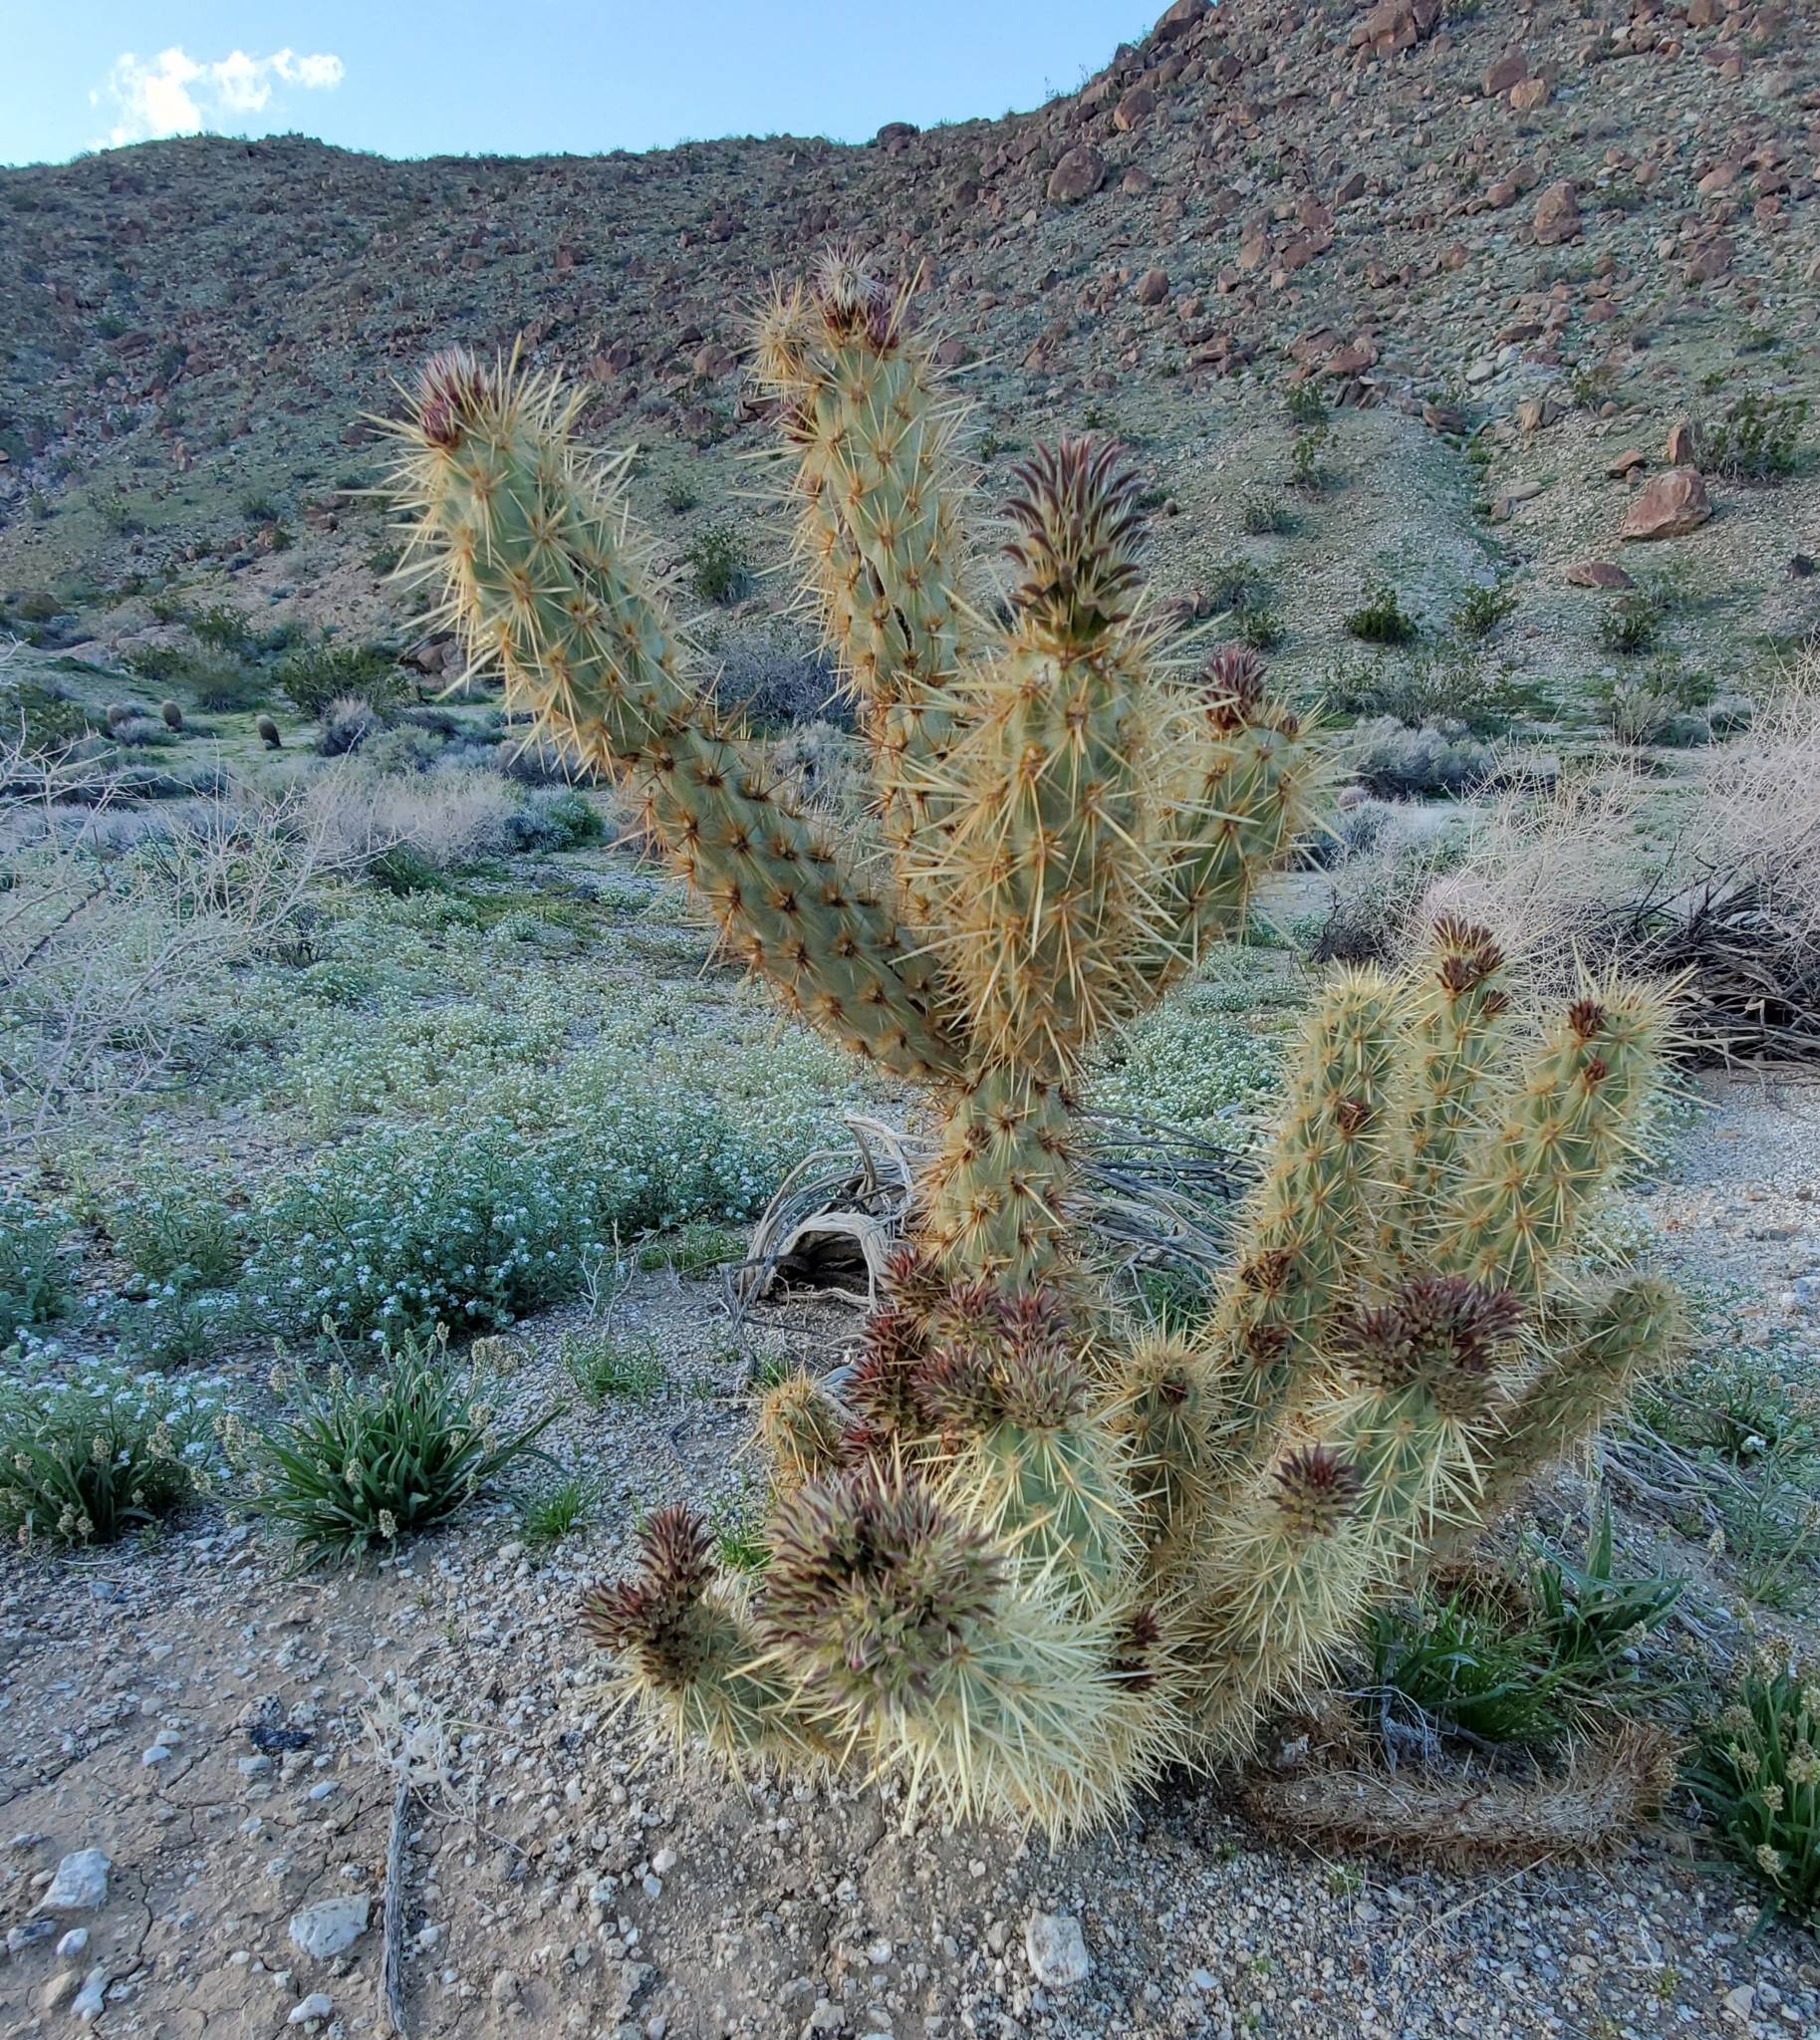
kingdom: Plantae
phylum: Tracheophyta
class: Magnoliopsida
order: Caryophyllales
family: Cactaceae
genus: Cylindropuntia
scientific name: Cylindropuntia ganderi
